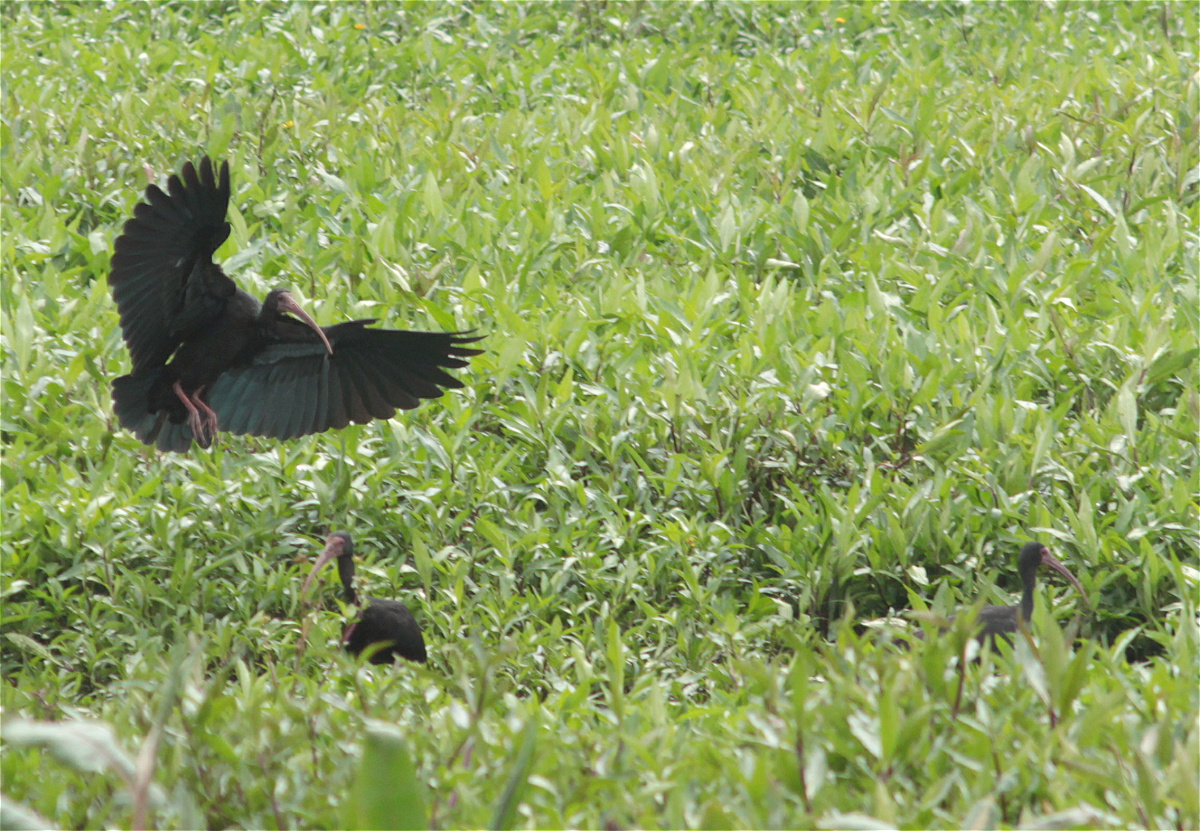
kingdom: Animalia
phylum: Chordata
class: Aves
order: Pelecaniformes
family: Threskiornithidae
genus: Phimosus
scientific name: Phimosus infuscatus
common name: Bare-faced ibis
